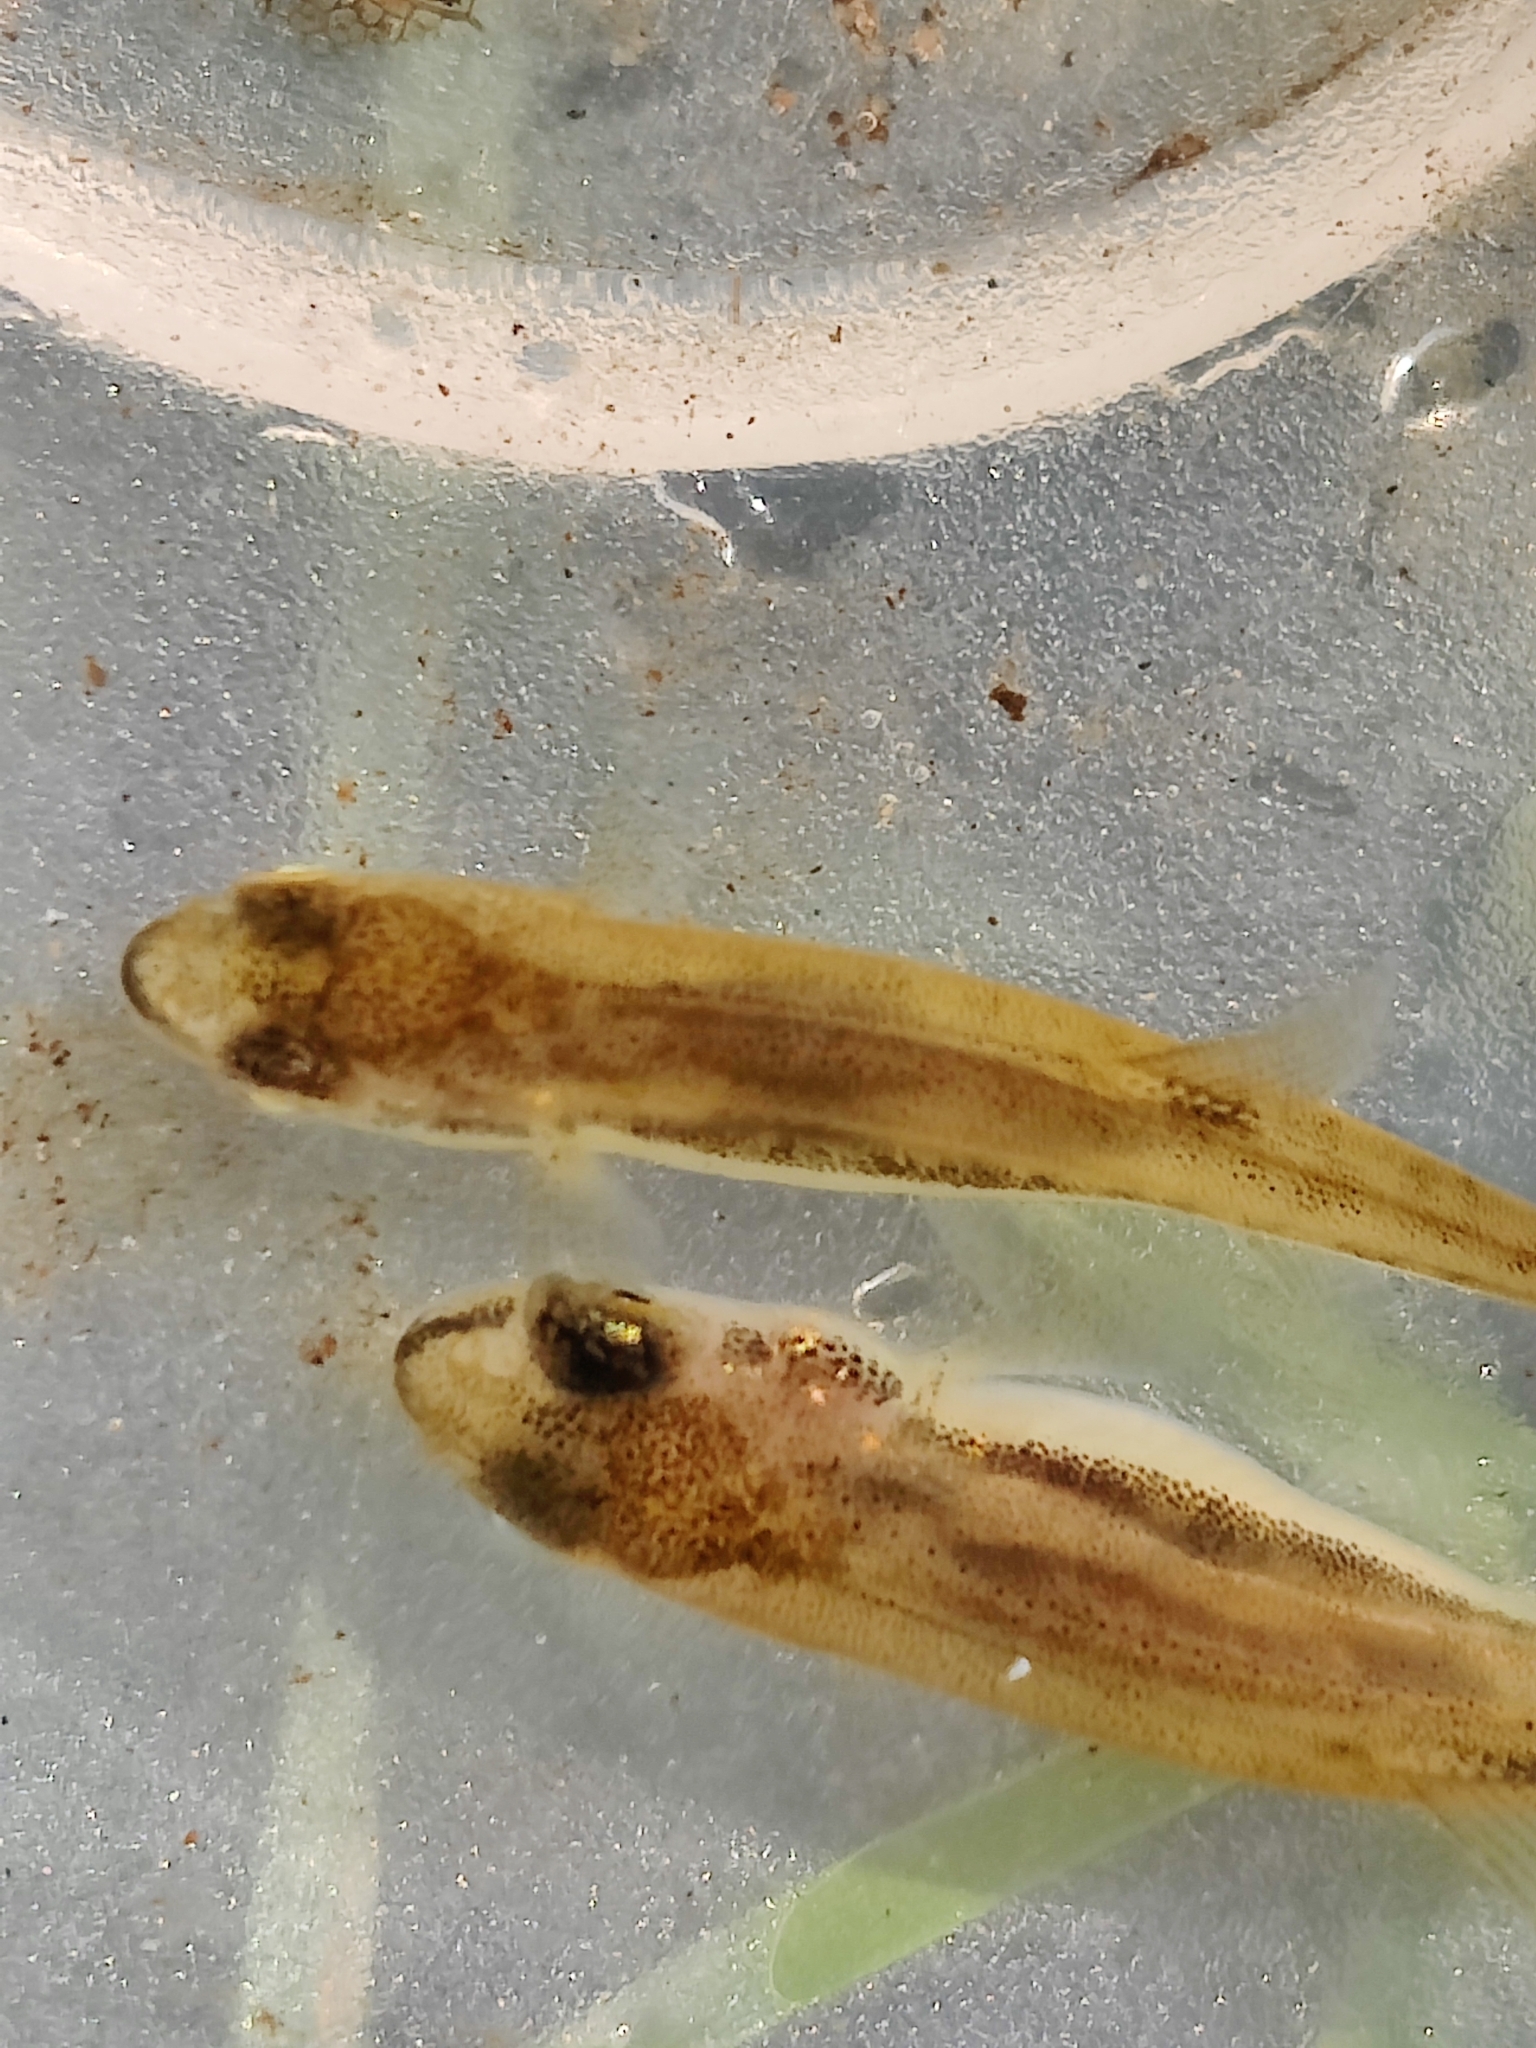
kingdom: Animalia
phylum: Chordata
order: Cypriniformes
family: Cyprinidae
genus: Phoxinus
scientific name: Phoxinus phoxinus
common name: Minnow
